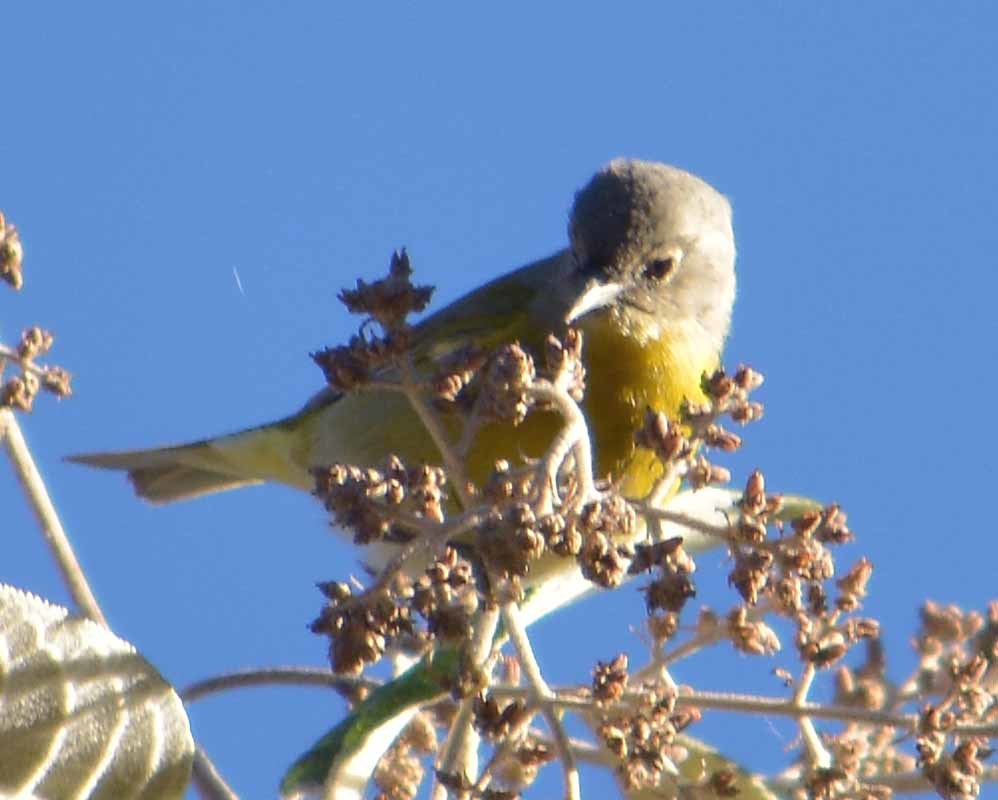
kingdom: Animalia
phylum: Chordata
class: Aves
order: Passeriformes
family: Parulidae
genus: Leiothlypis
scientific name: Leiothlypis ruficapilla
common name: Nashville warbler
